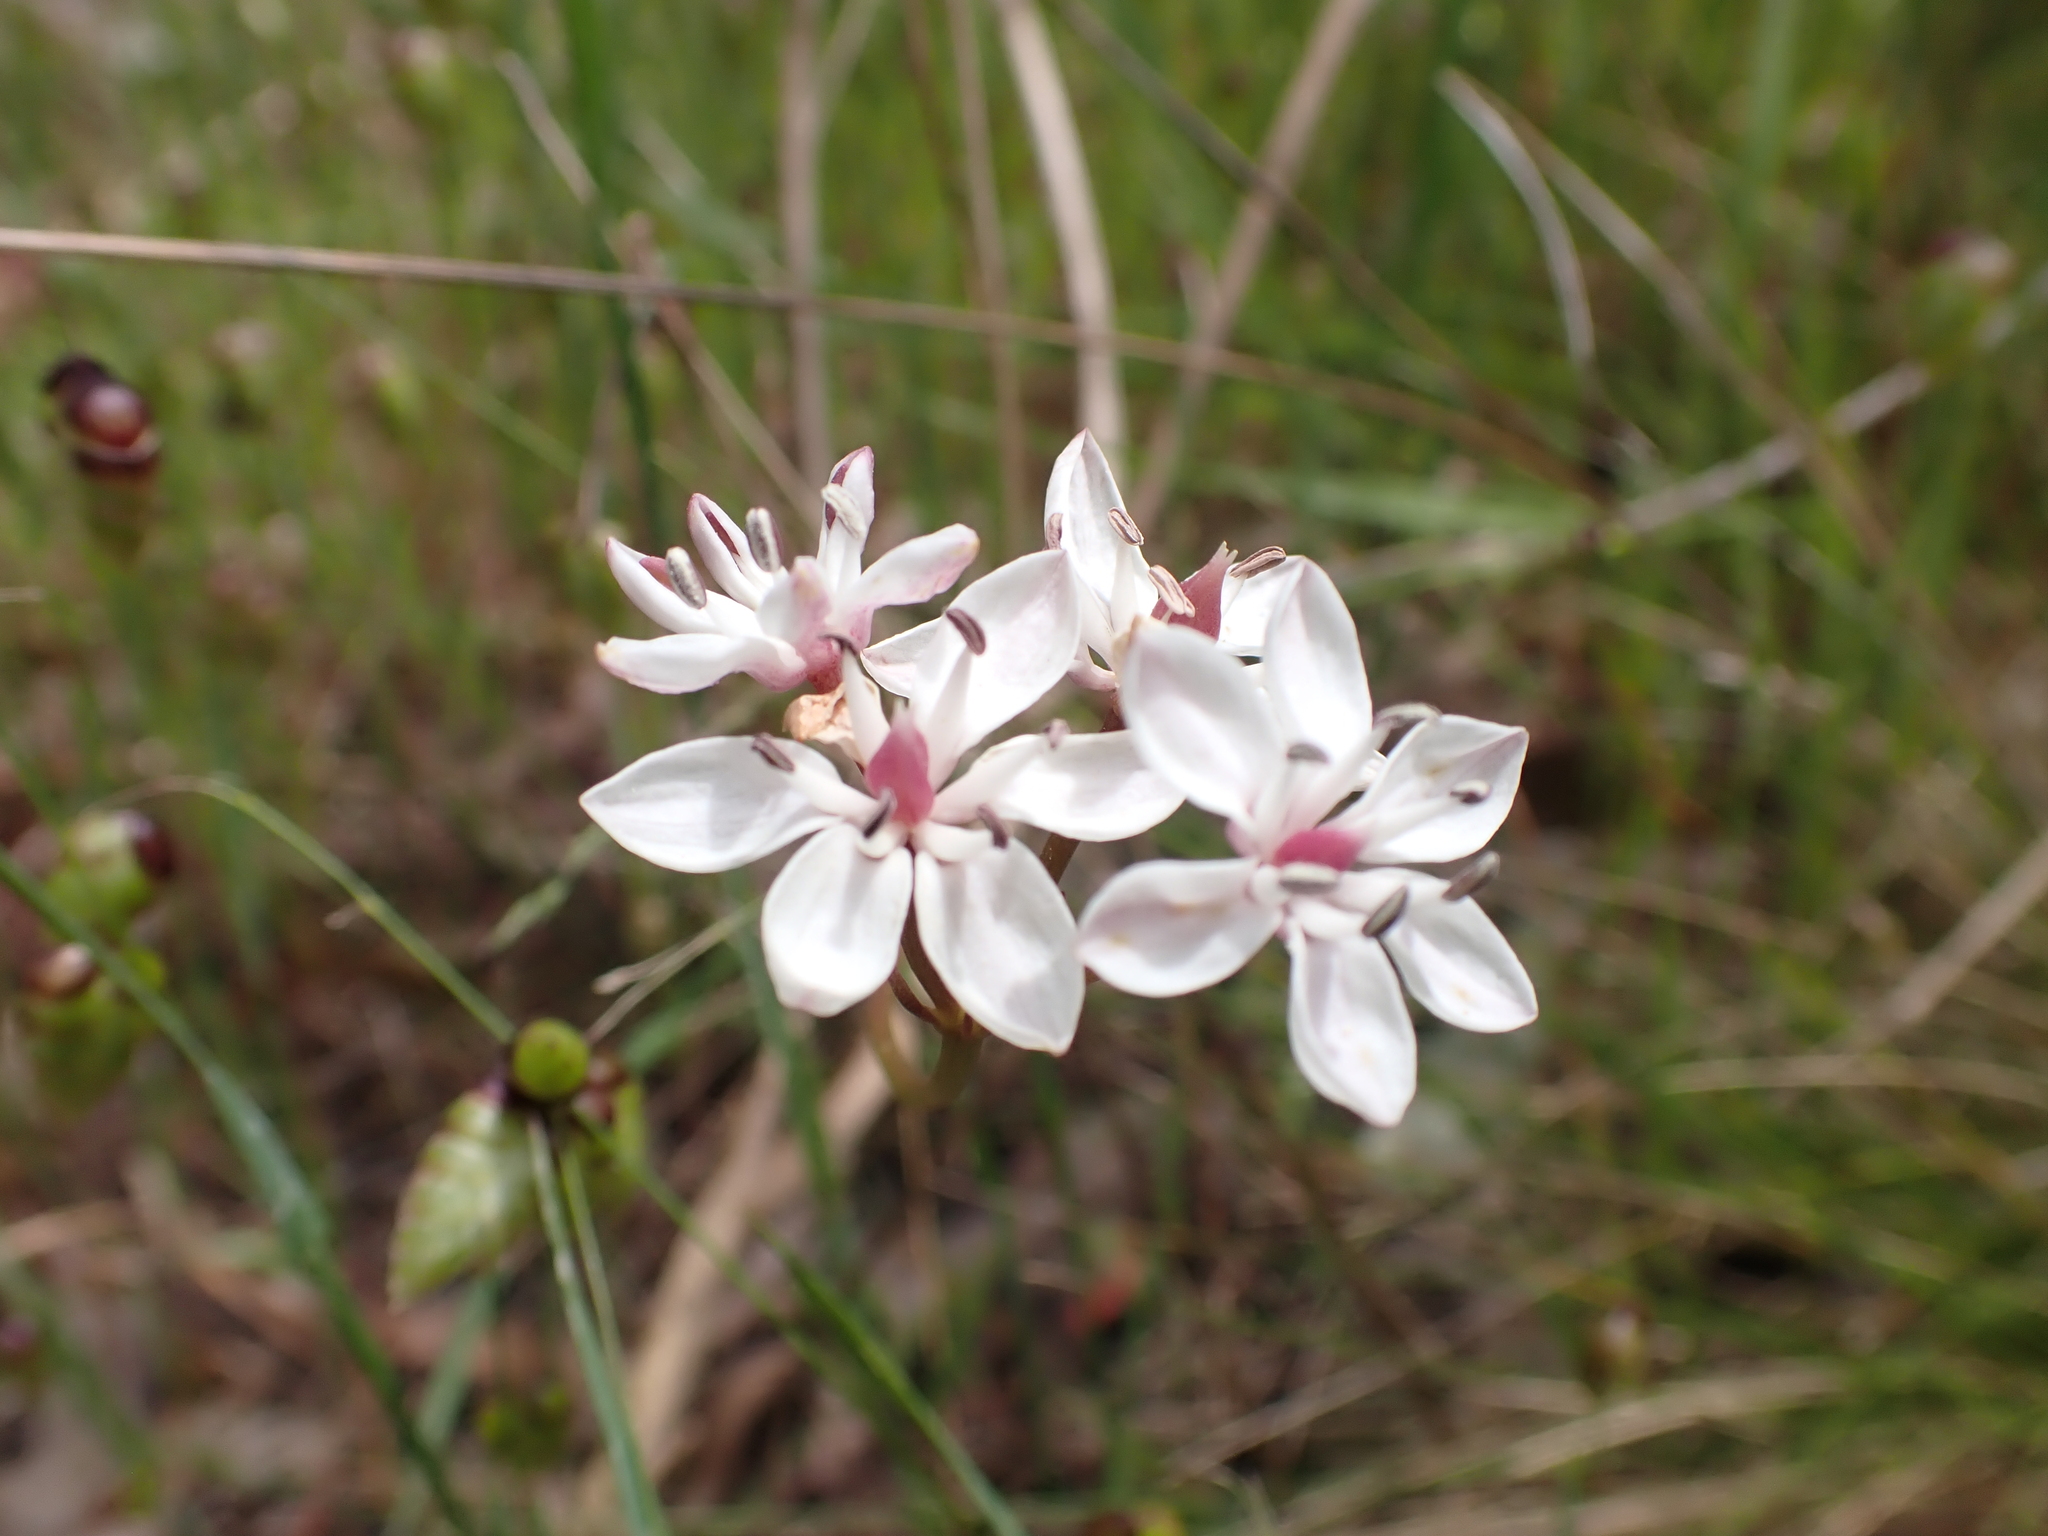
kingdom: Plantae
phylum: Tracheophyta
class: Liliopsida
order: Liliales
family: Colchicaceae
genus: Burchardia
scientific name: Burchardia umbellata
